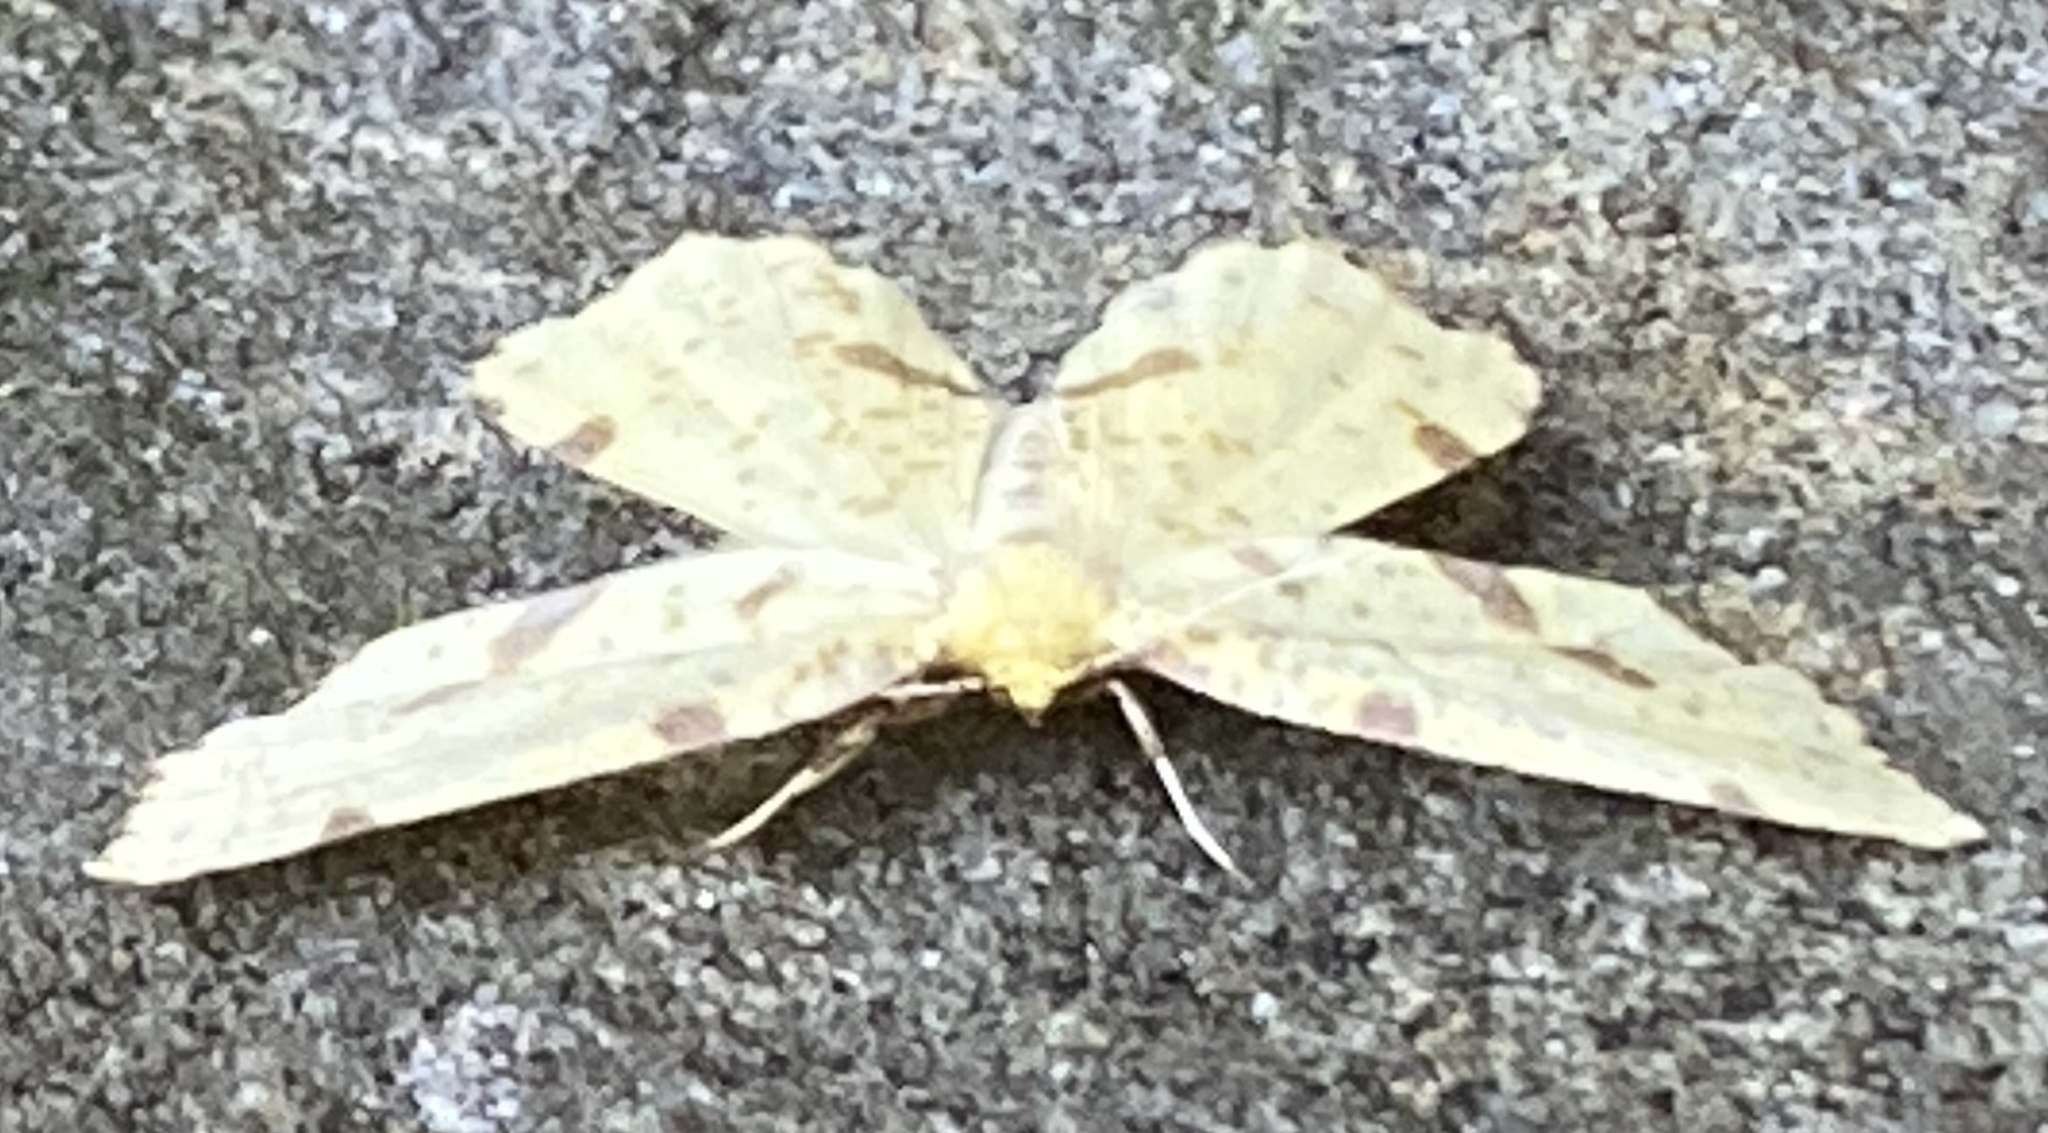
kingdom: Animalia
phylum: Arthropoda
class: Insecta
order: Lepidoptera
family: Geometridae
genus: Xanthotype
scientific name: Xanthotype
